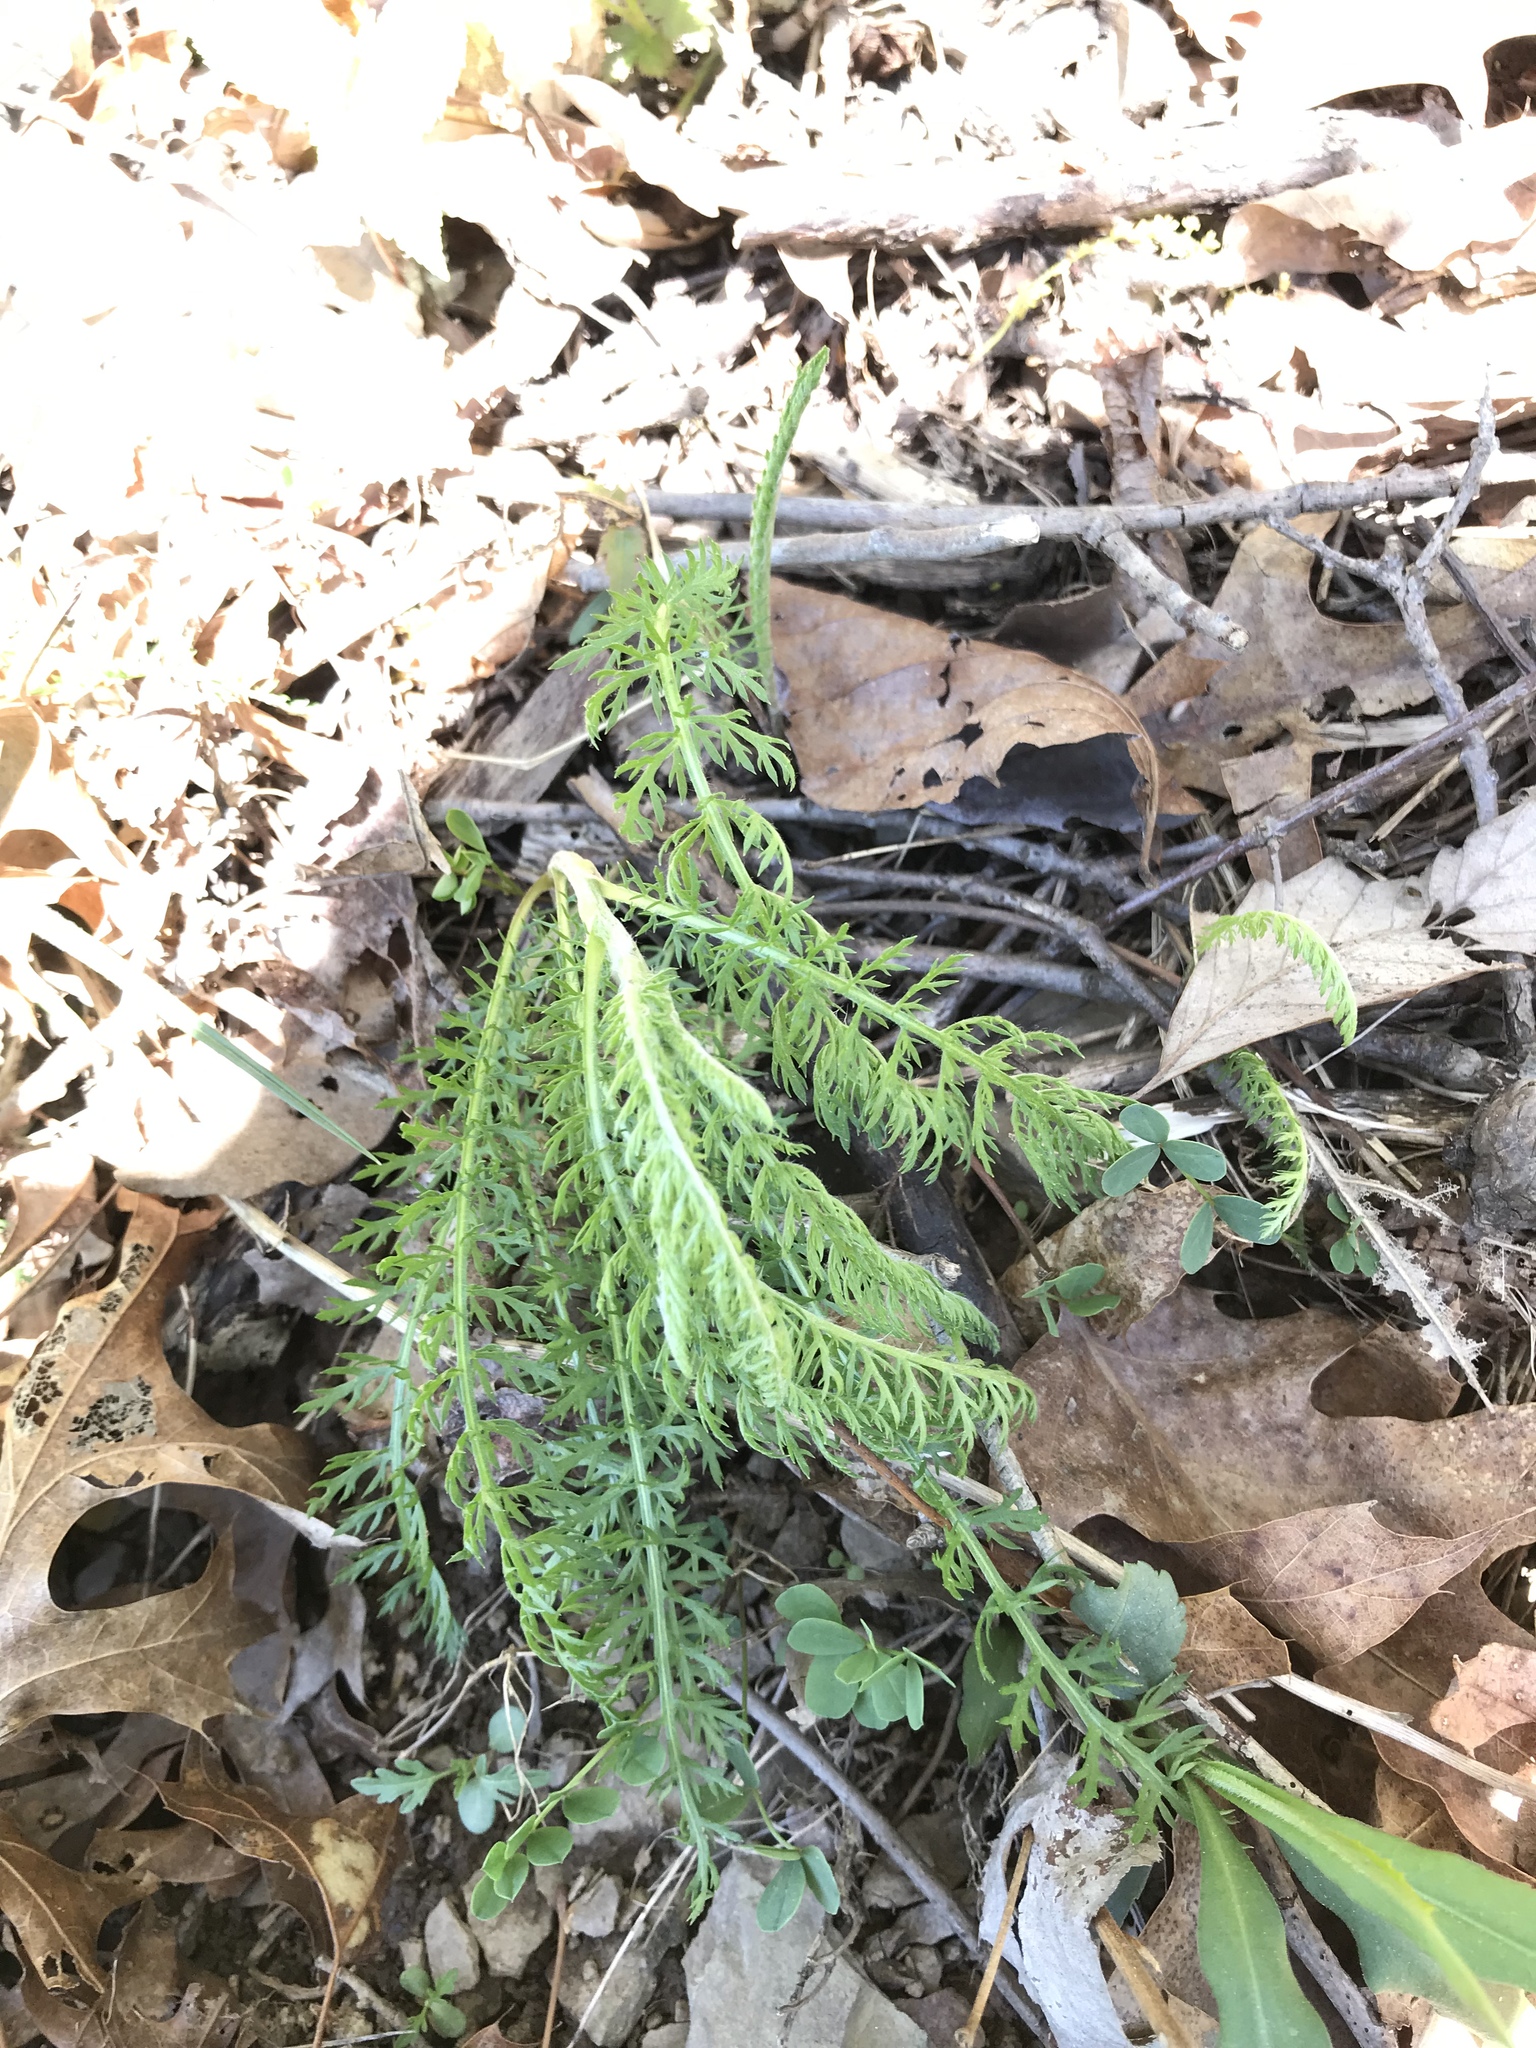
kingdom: Plantae
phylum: Tracheophyta
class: Magnoliopsida
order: Asterales
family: Asteraceae
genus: Achillea
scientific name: Achillea millefolium
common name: Yarrow
